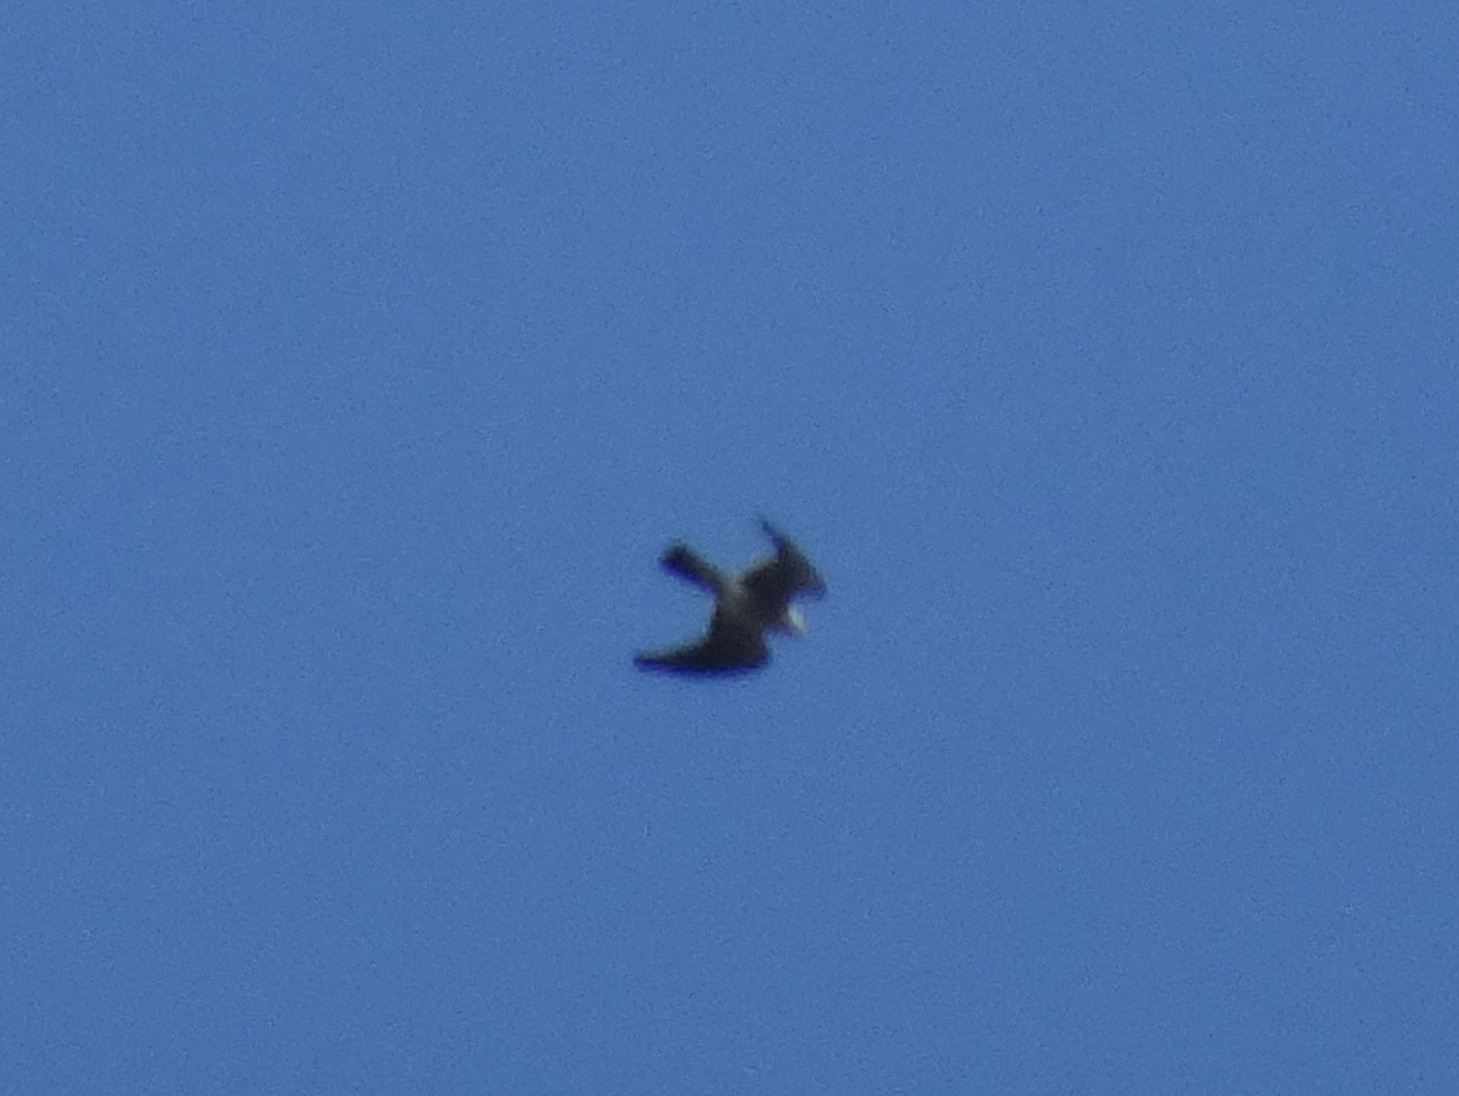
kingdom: Animalia
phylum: Chordata
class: Aves
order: Accipitriformes
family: Accipitridae
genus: Ictinia
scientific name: Ictinia mississippiensis
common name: Mississippi kite
